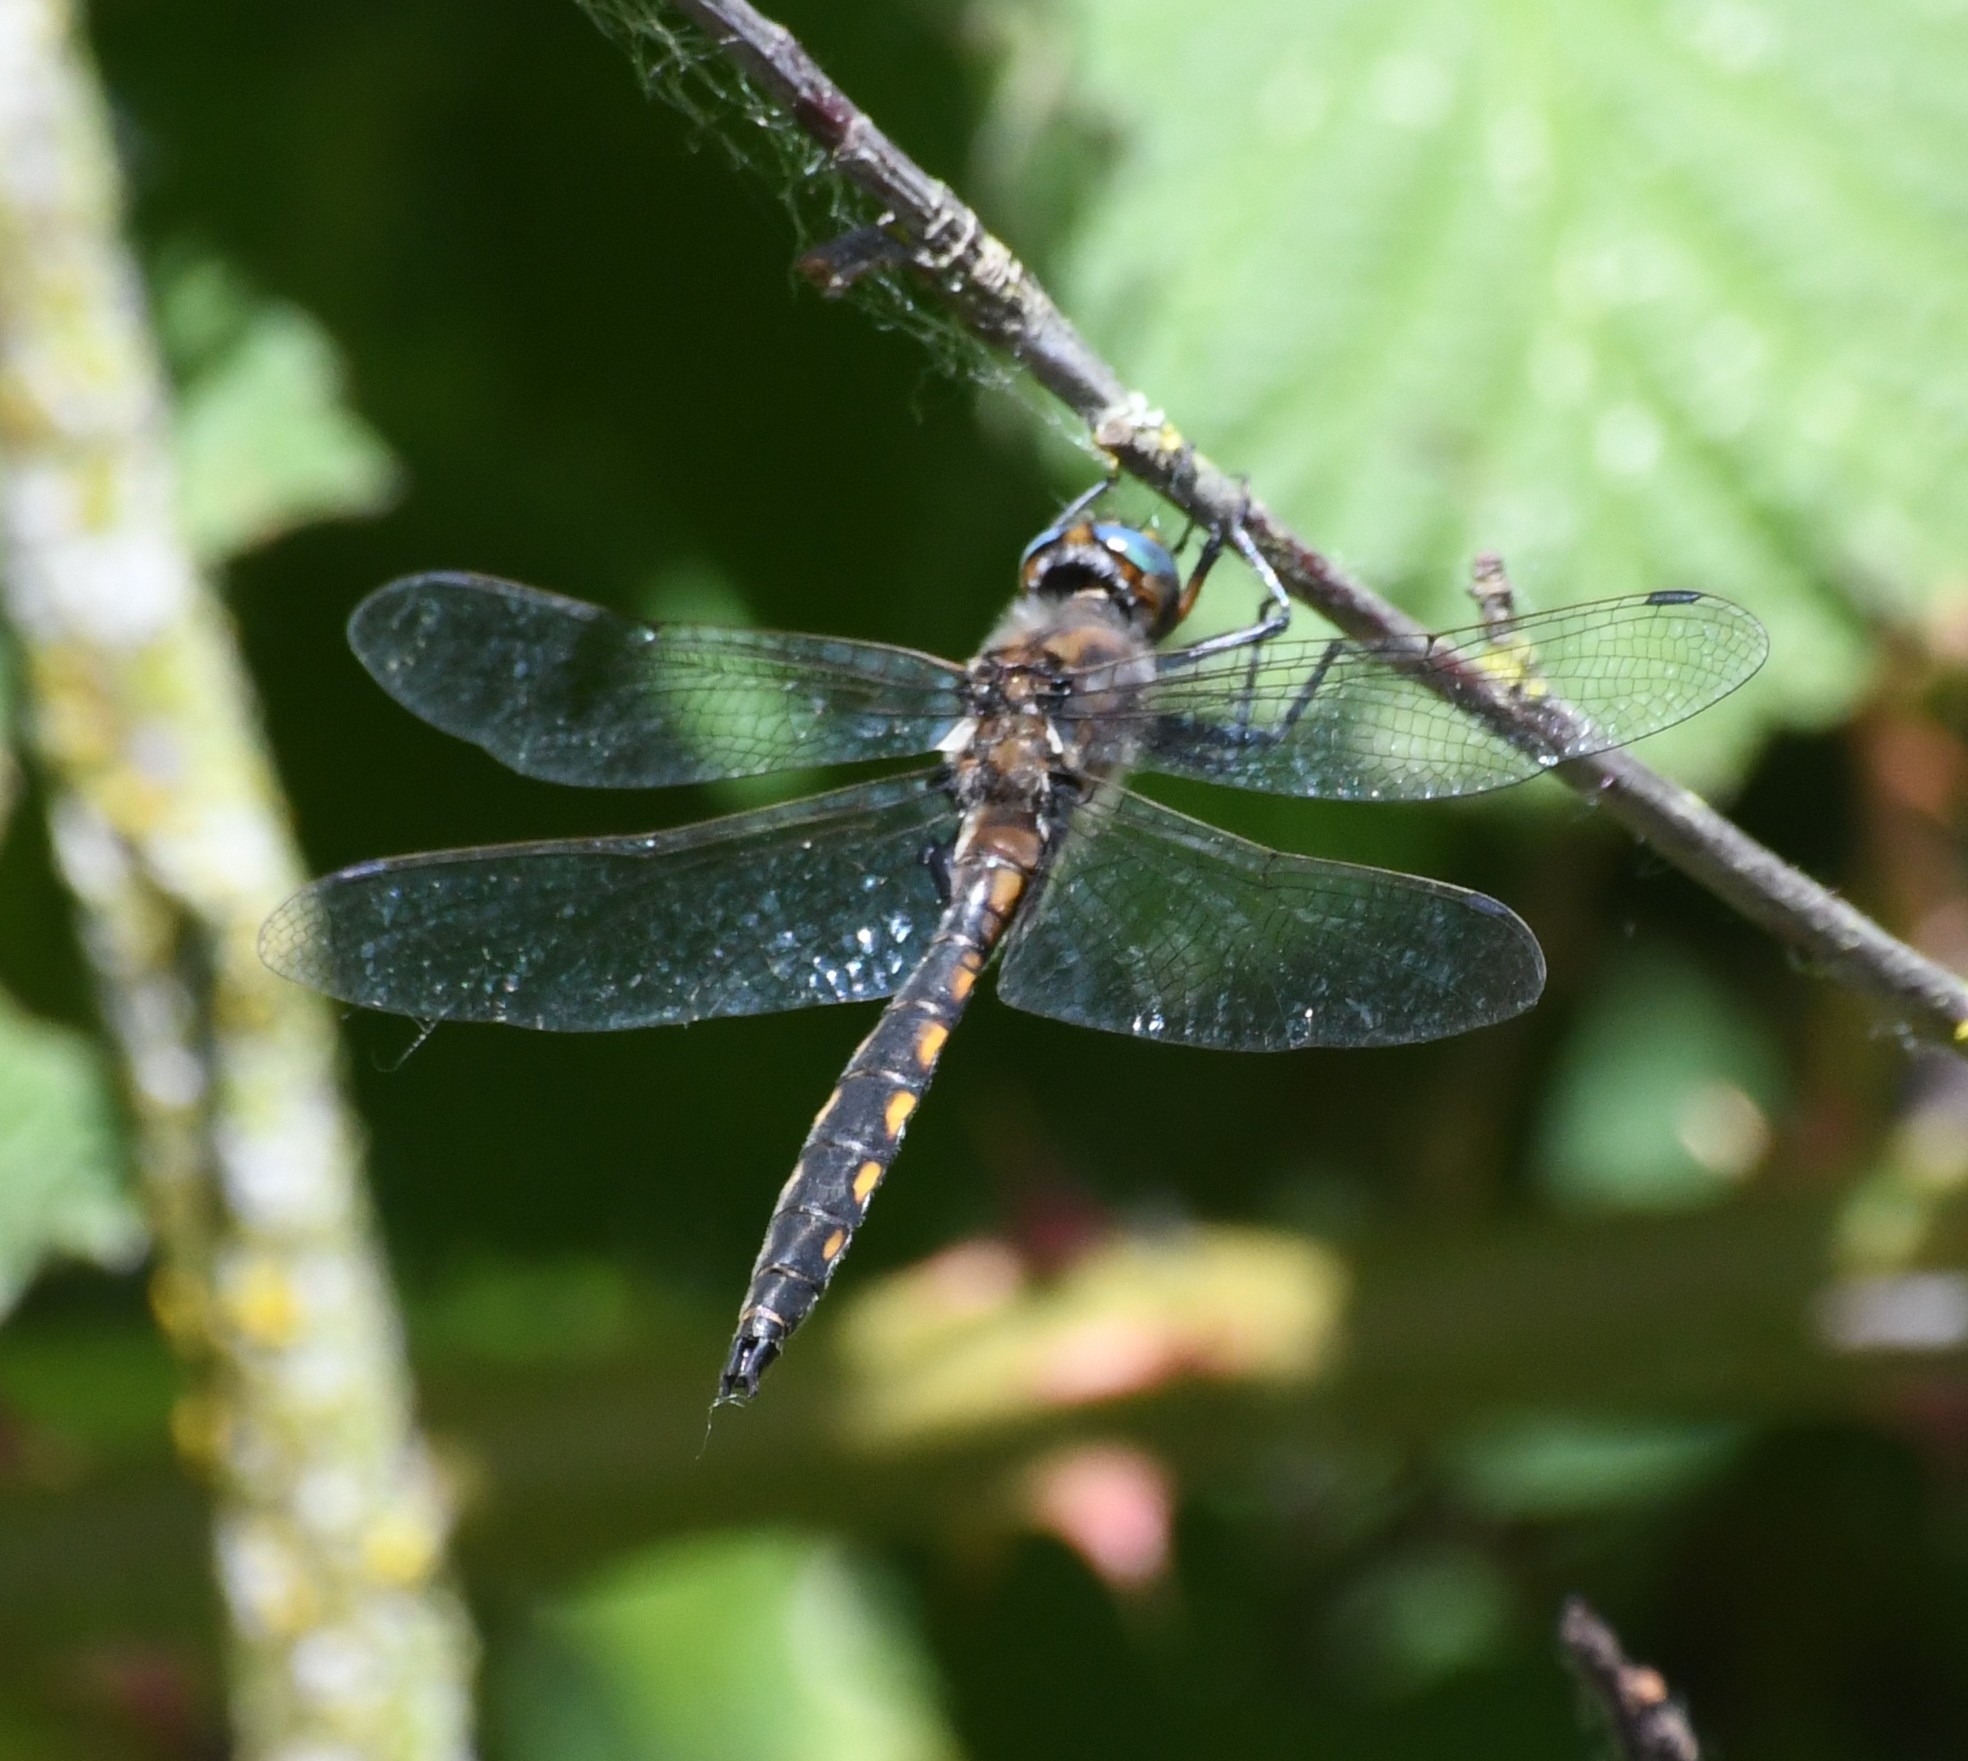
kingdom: Animalia
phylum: Arthropoda
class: Insecta
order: Odonata
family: Corduliidae
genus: Epitheca
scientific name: Epitheca canis
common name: Beaverpond baskettail
